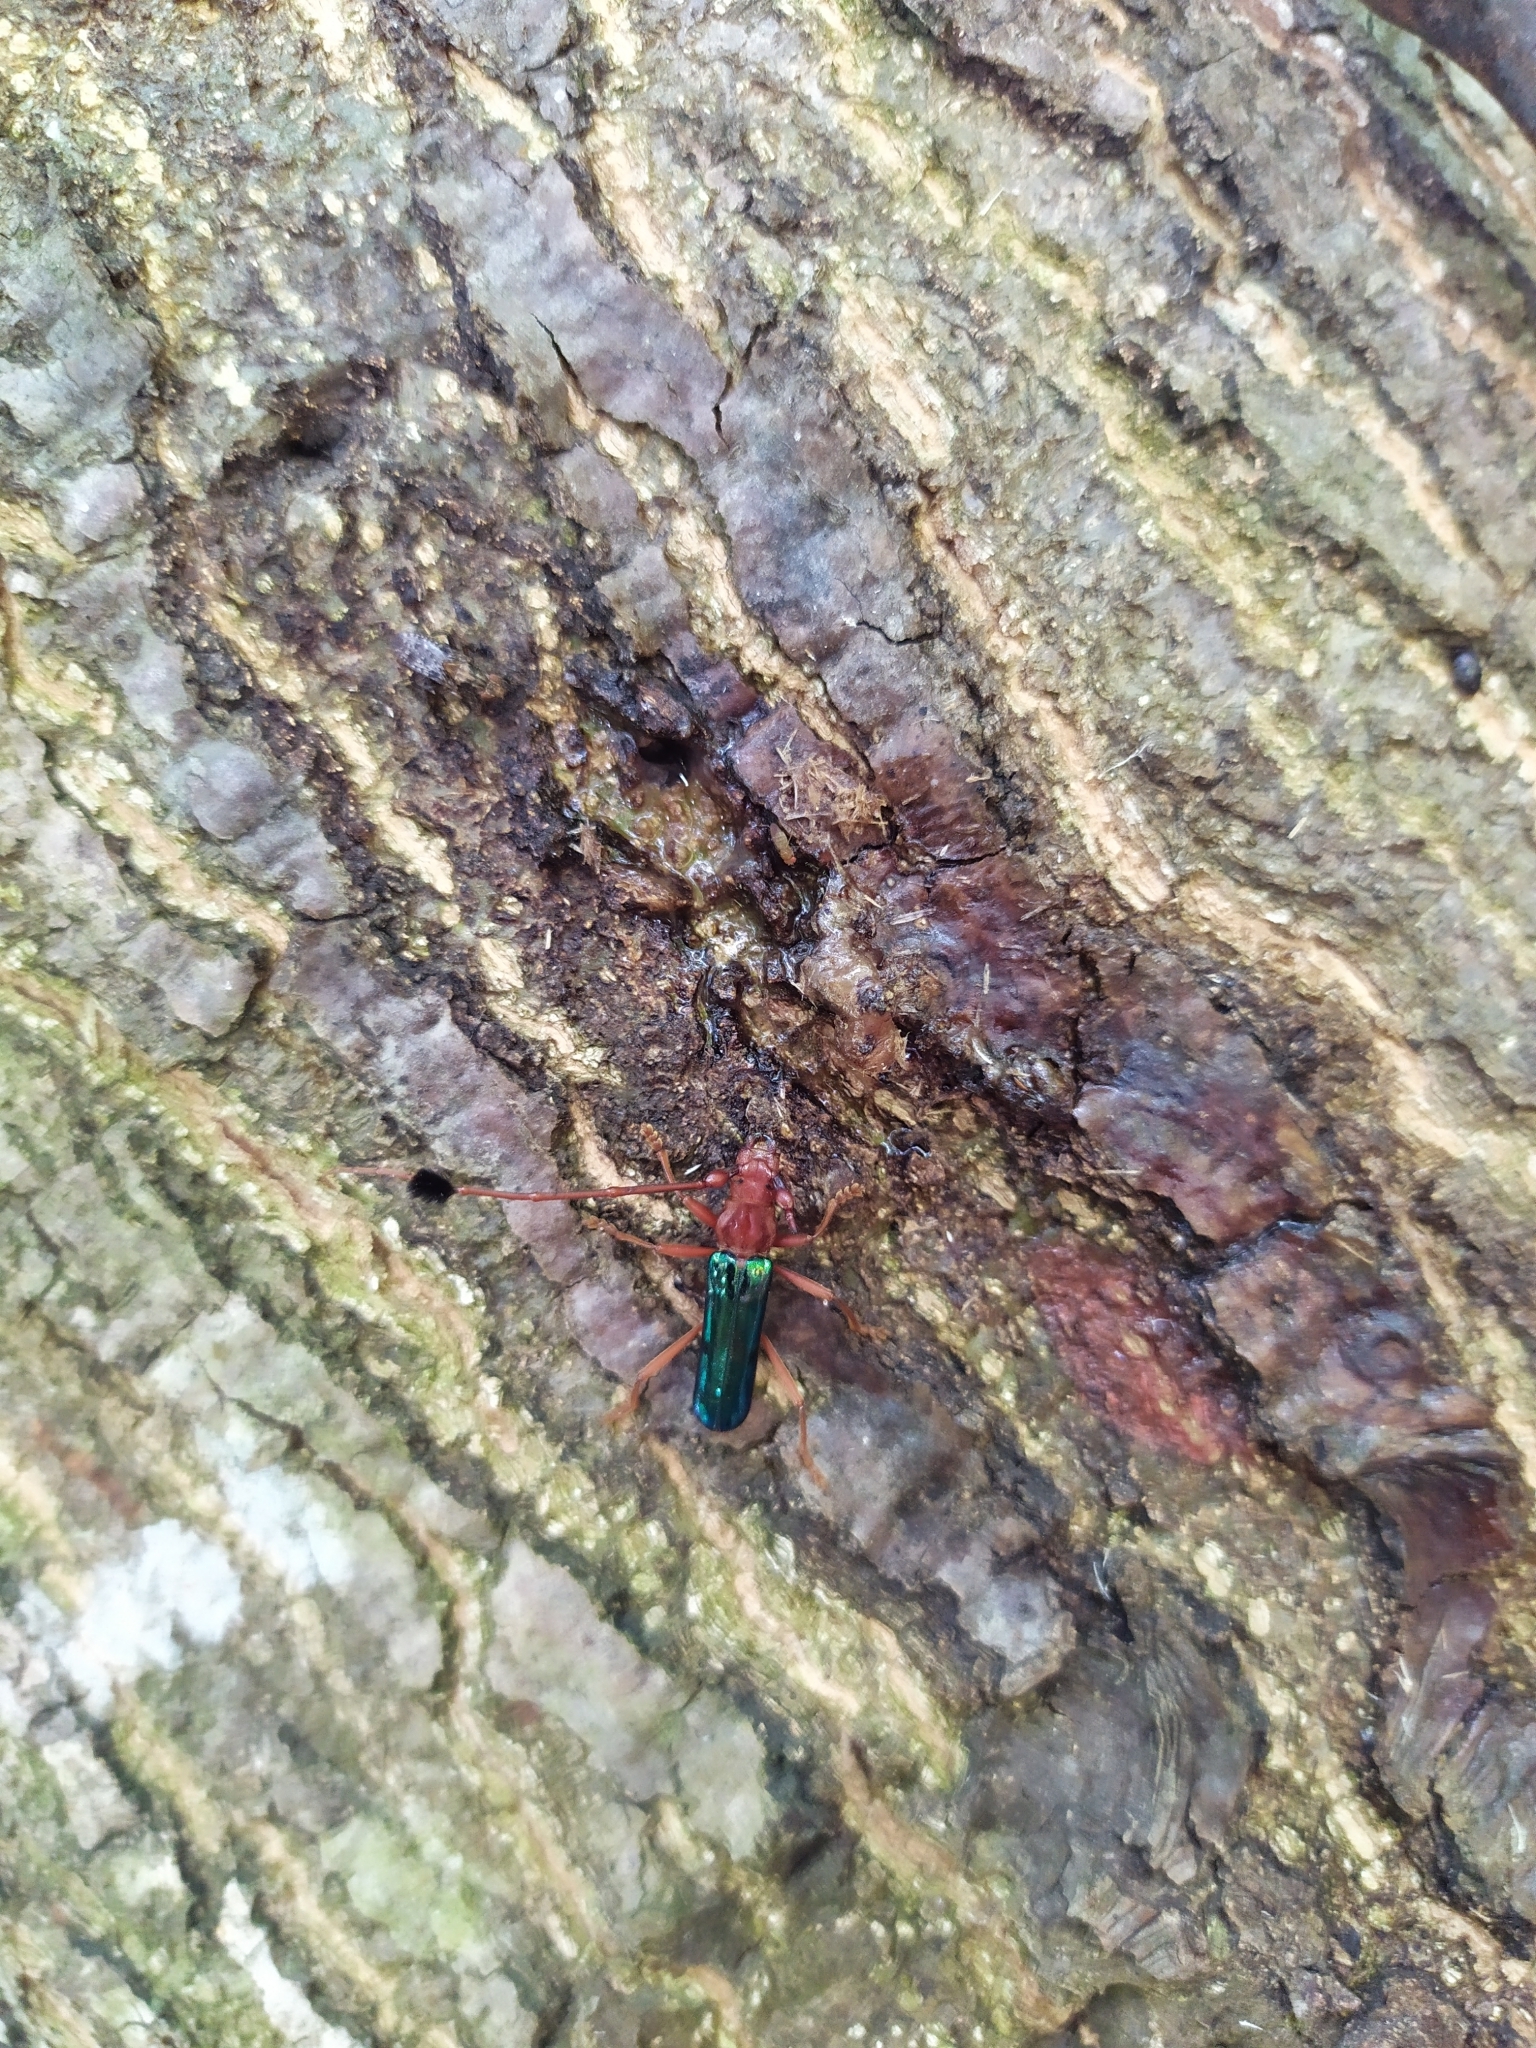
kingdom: Animalia
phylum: Arthropoda
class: Insecta
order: Coleoptera
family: Cerambycidae
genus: Compsocerus
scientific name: Compsocerus violaceus
